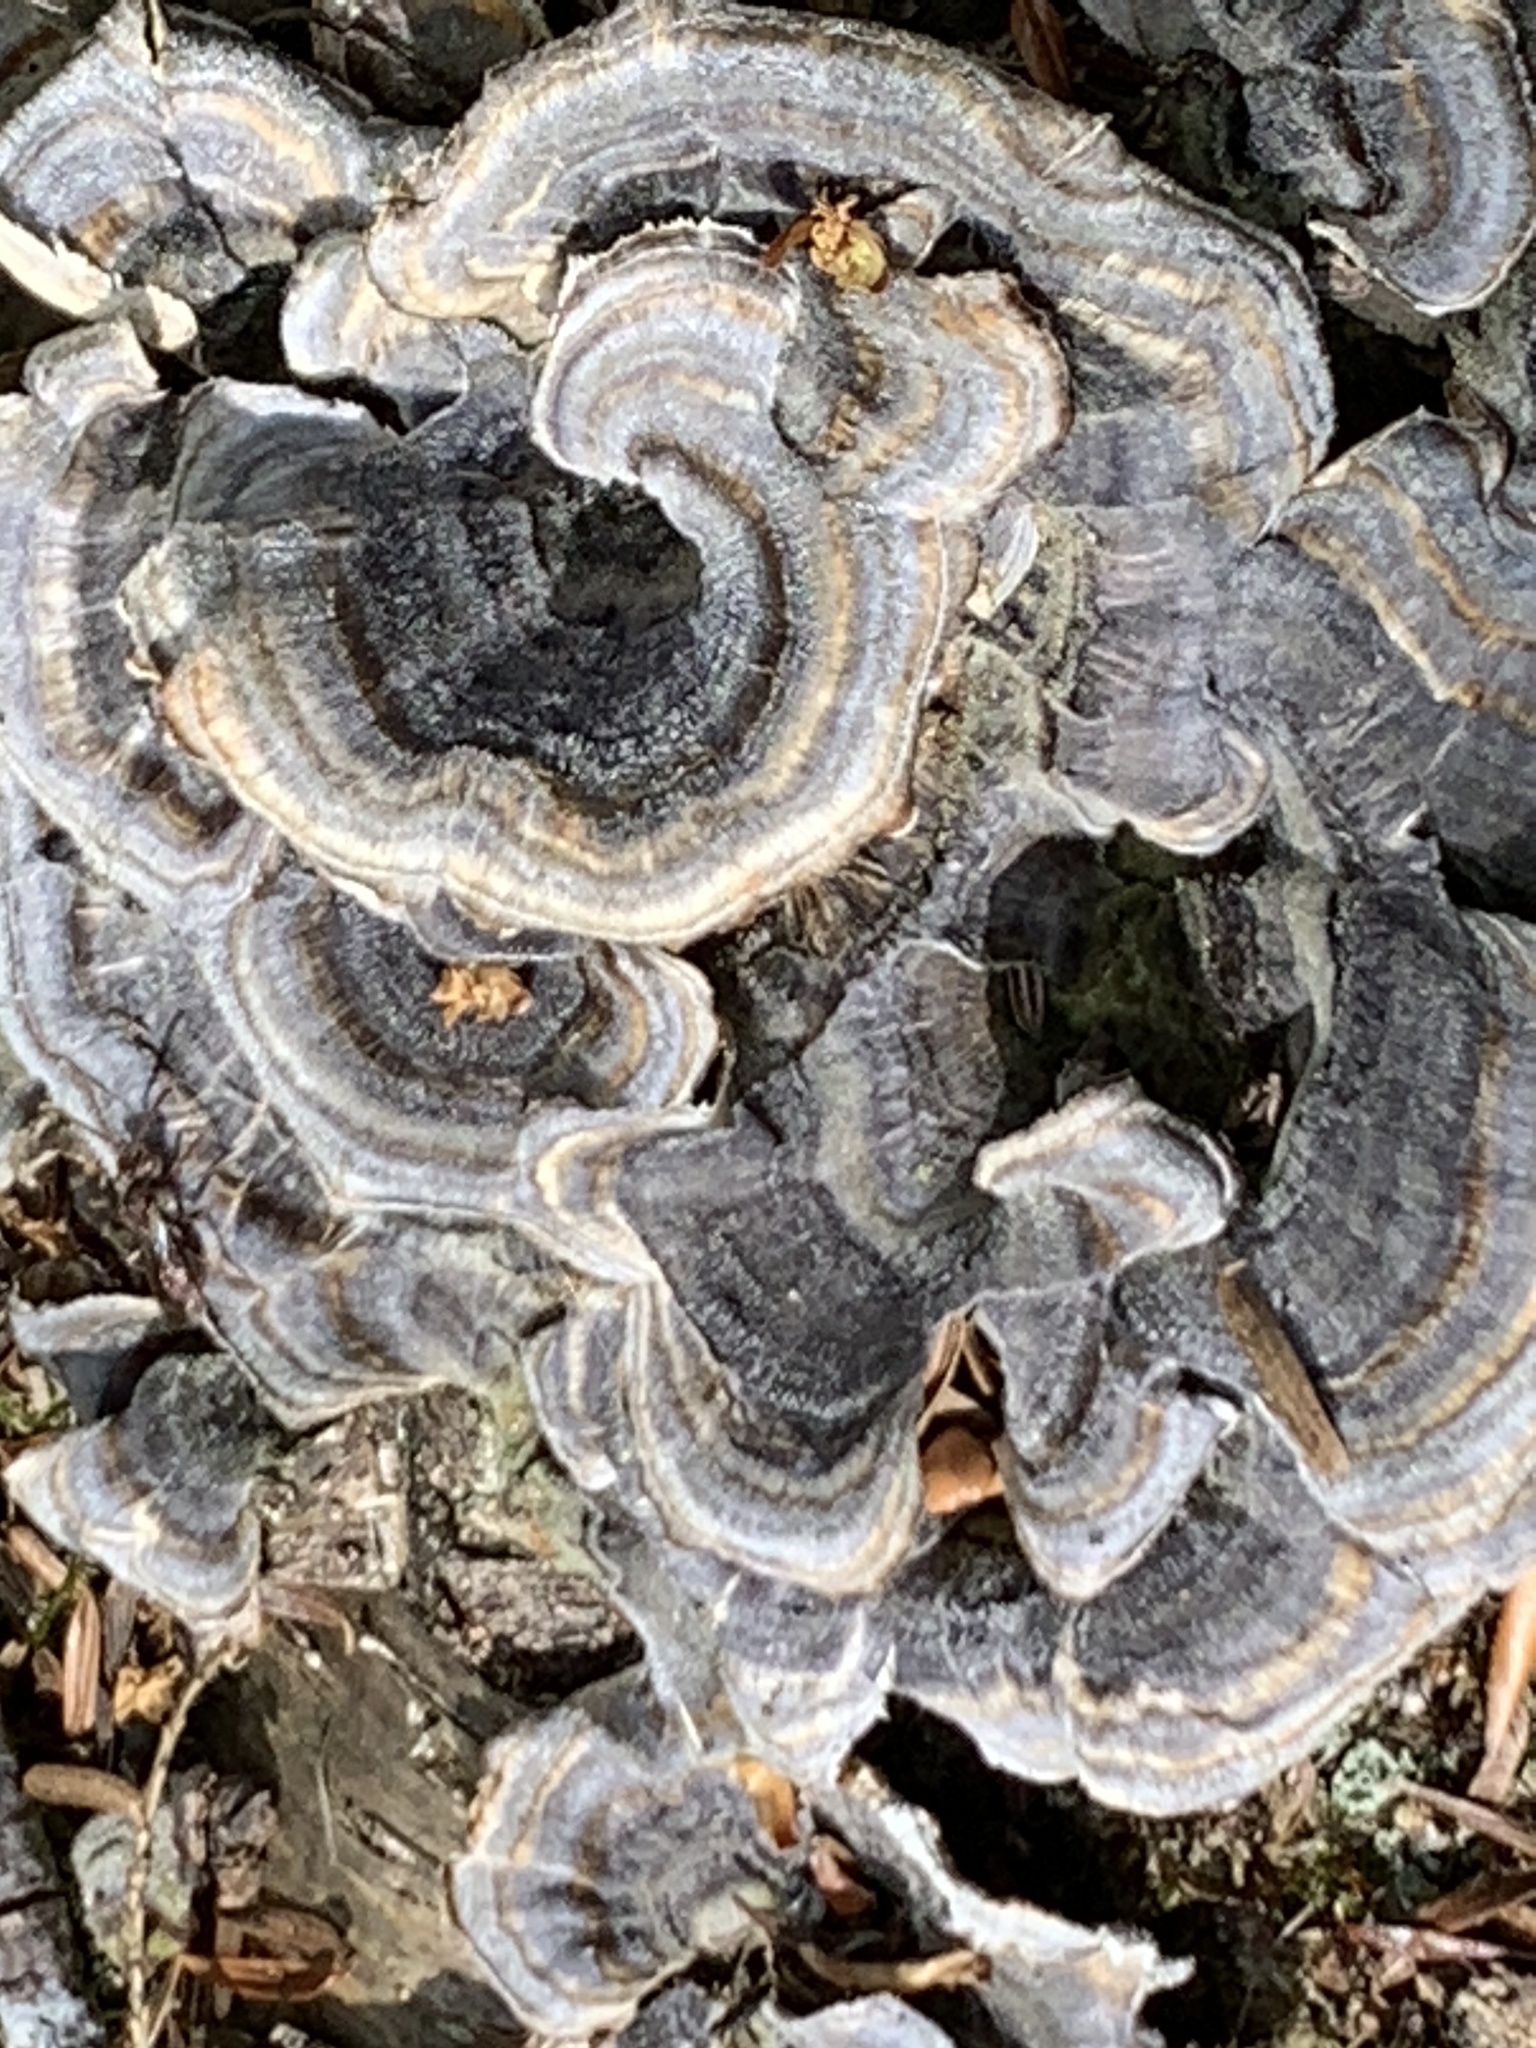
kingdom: Fungi
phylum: Basidiomycota
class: Agaricomycetes
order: Polyporales
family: Polyporaceae
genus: Trametes
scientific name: Trametes versicolor
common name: Turkeytail
